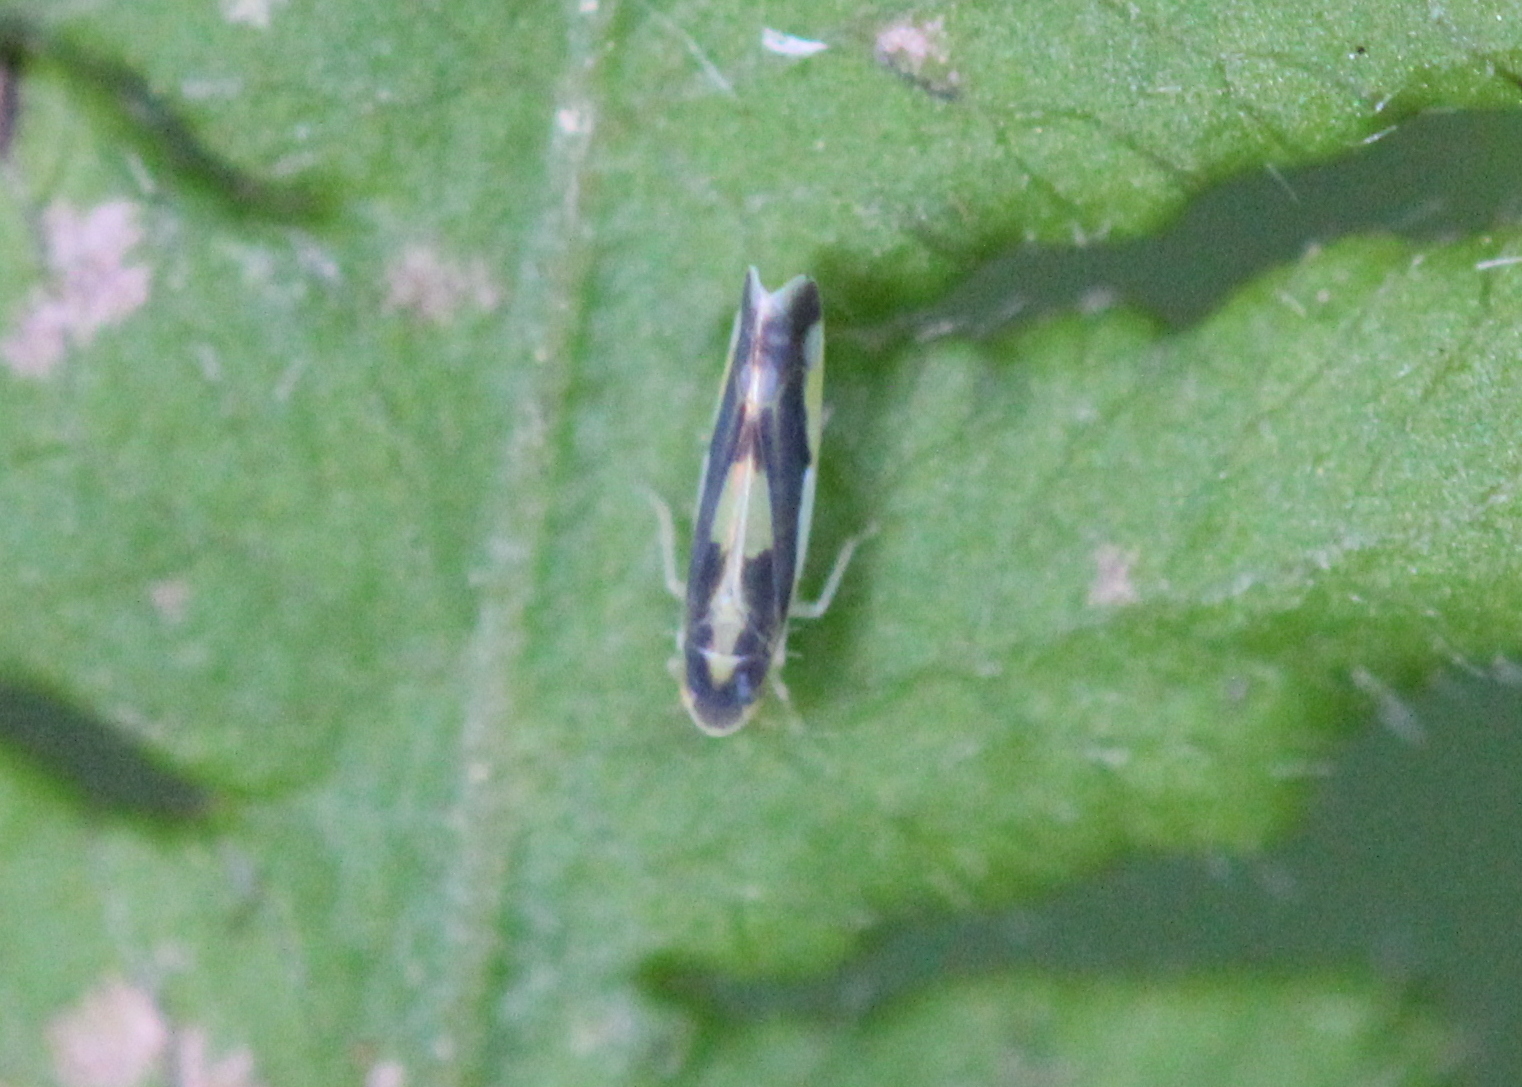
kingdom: Animalia
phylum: Arthropoda
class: Insecta
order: Hemiptera
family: Cicadellidae
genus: Eupteryx
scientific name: Eupteryx flavoscuta
